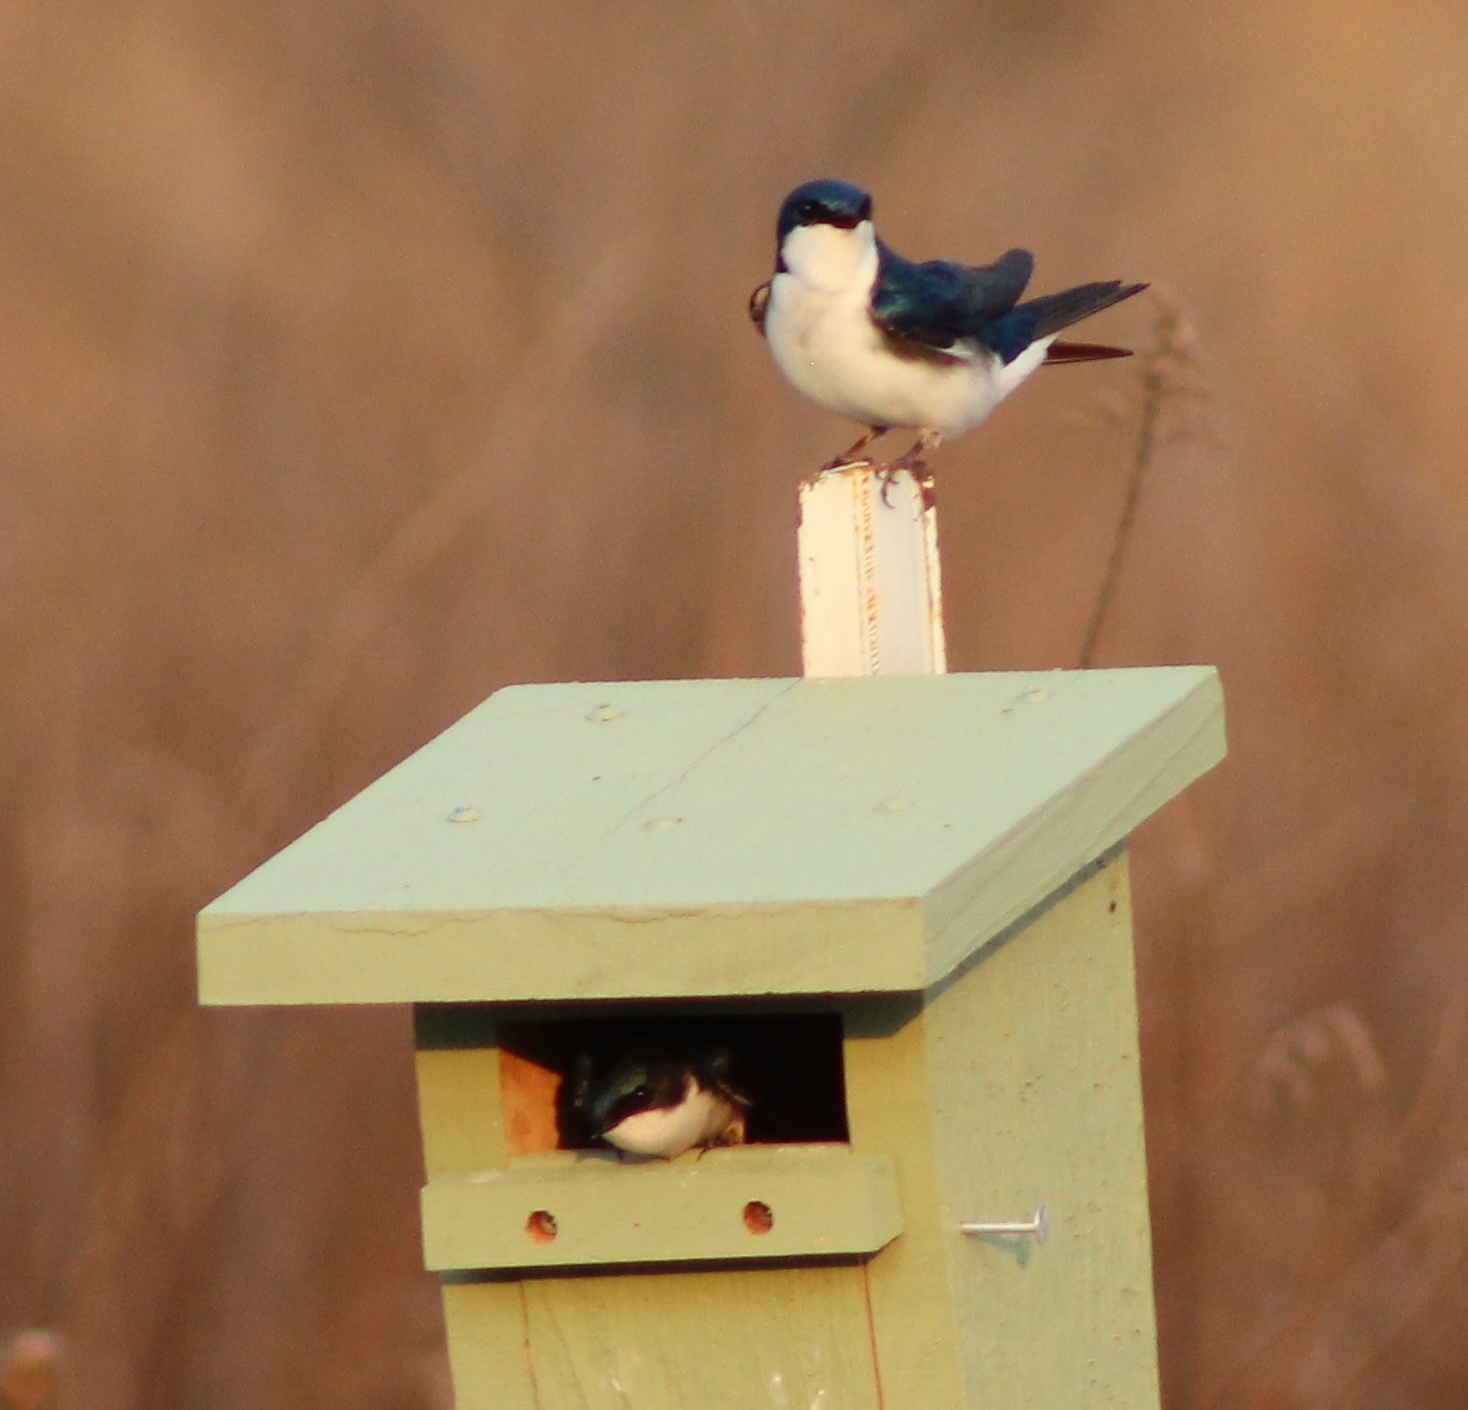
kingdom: Animalia
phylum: Chordata
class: Aves
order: Passeriformes
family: Hirundinidae
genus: Tachycineta
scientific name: Tachycineta bicolor
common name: Tree swallow
